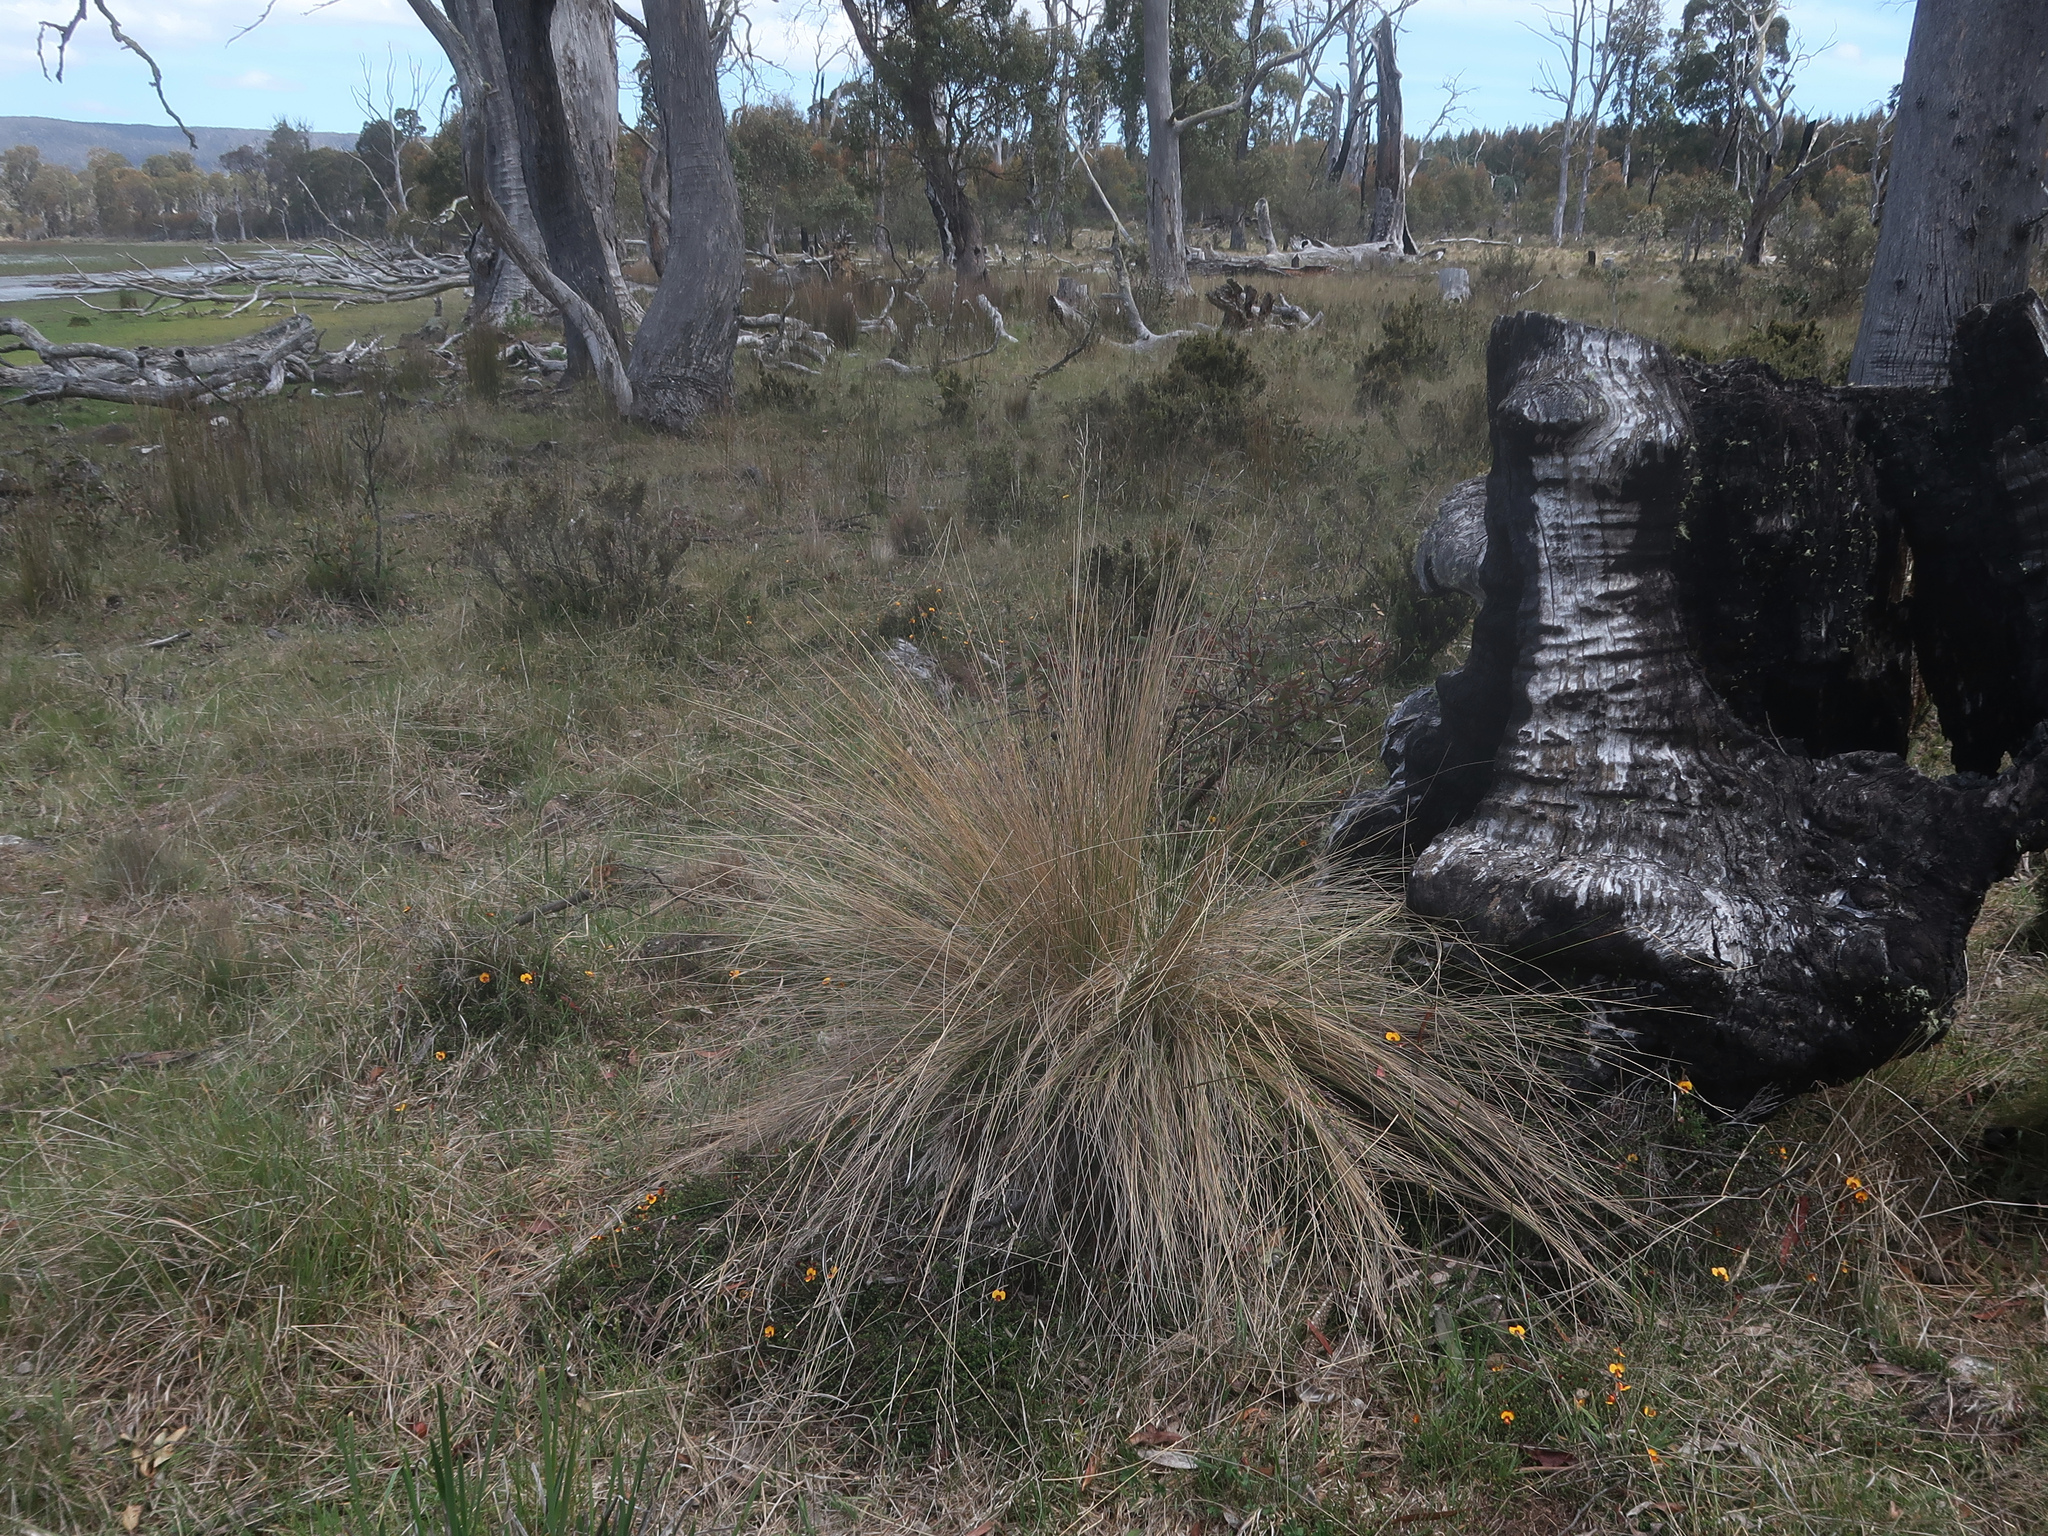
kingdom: Plantae
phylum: Tracheophyta
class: Magnoliopsida
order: Fabales
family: Fabaceae
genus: Bossiaea
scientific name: Bossiaea hendersonii
